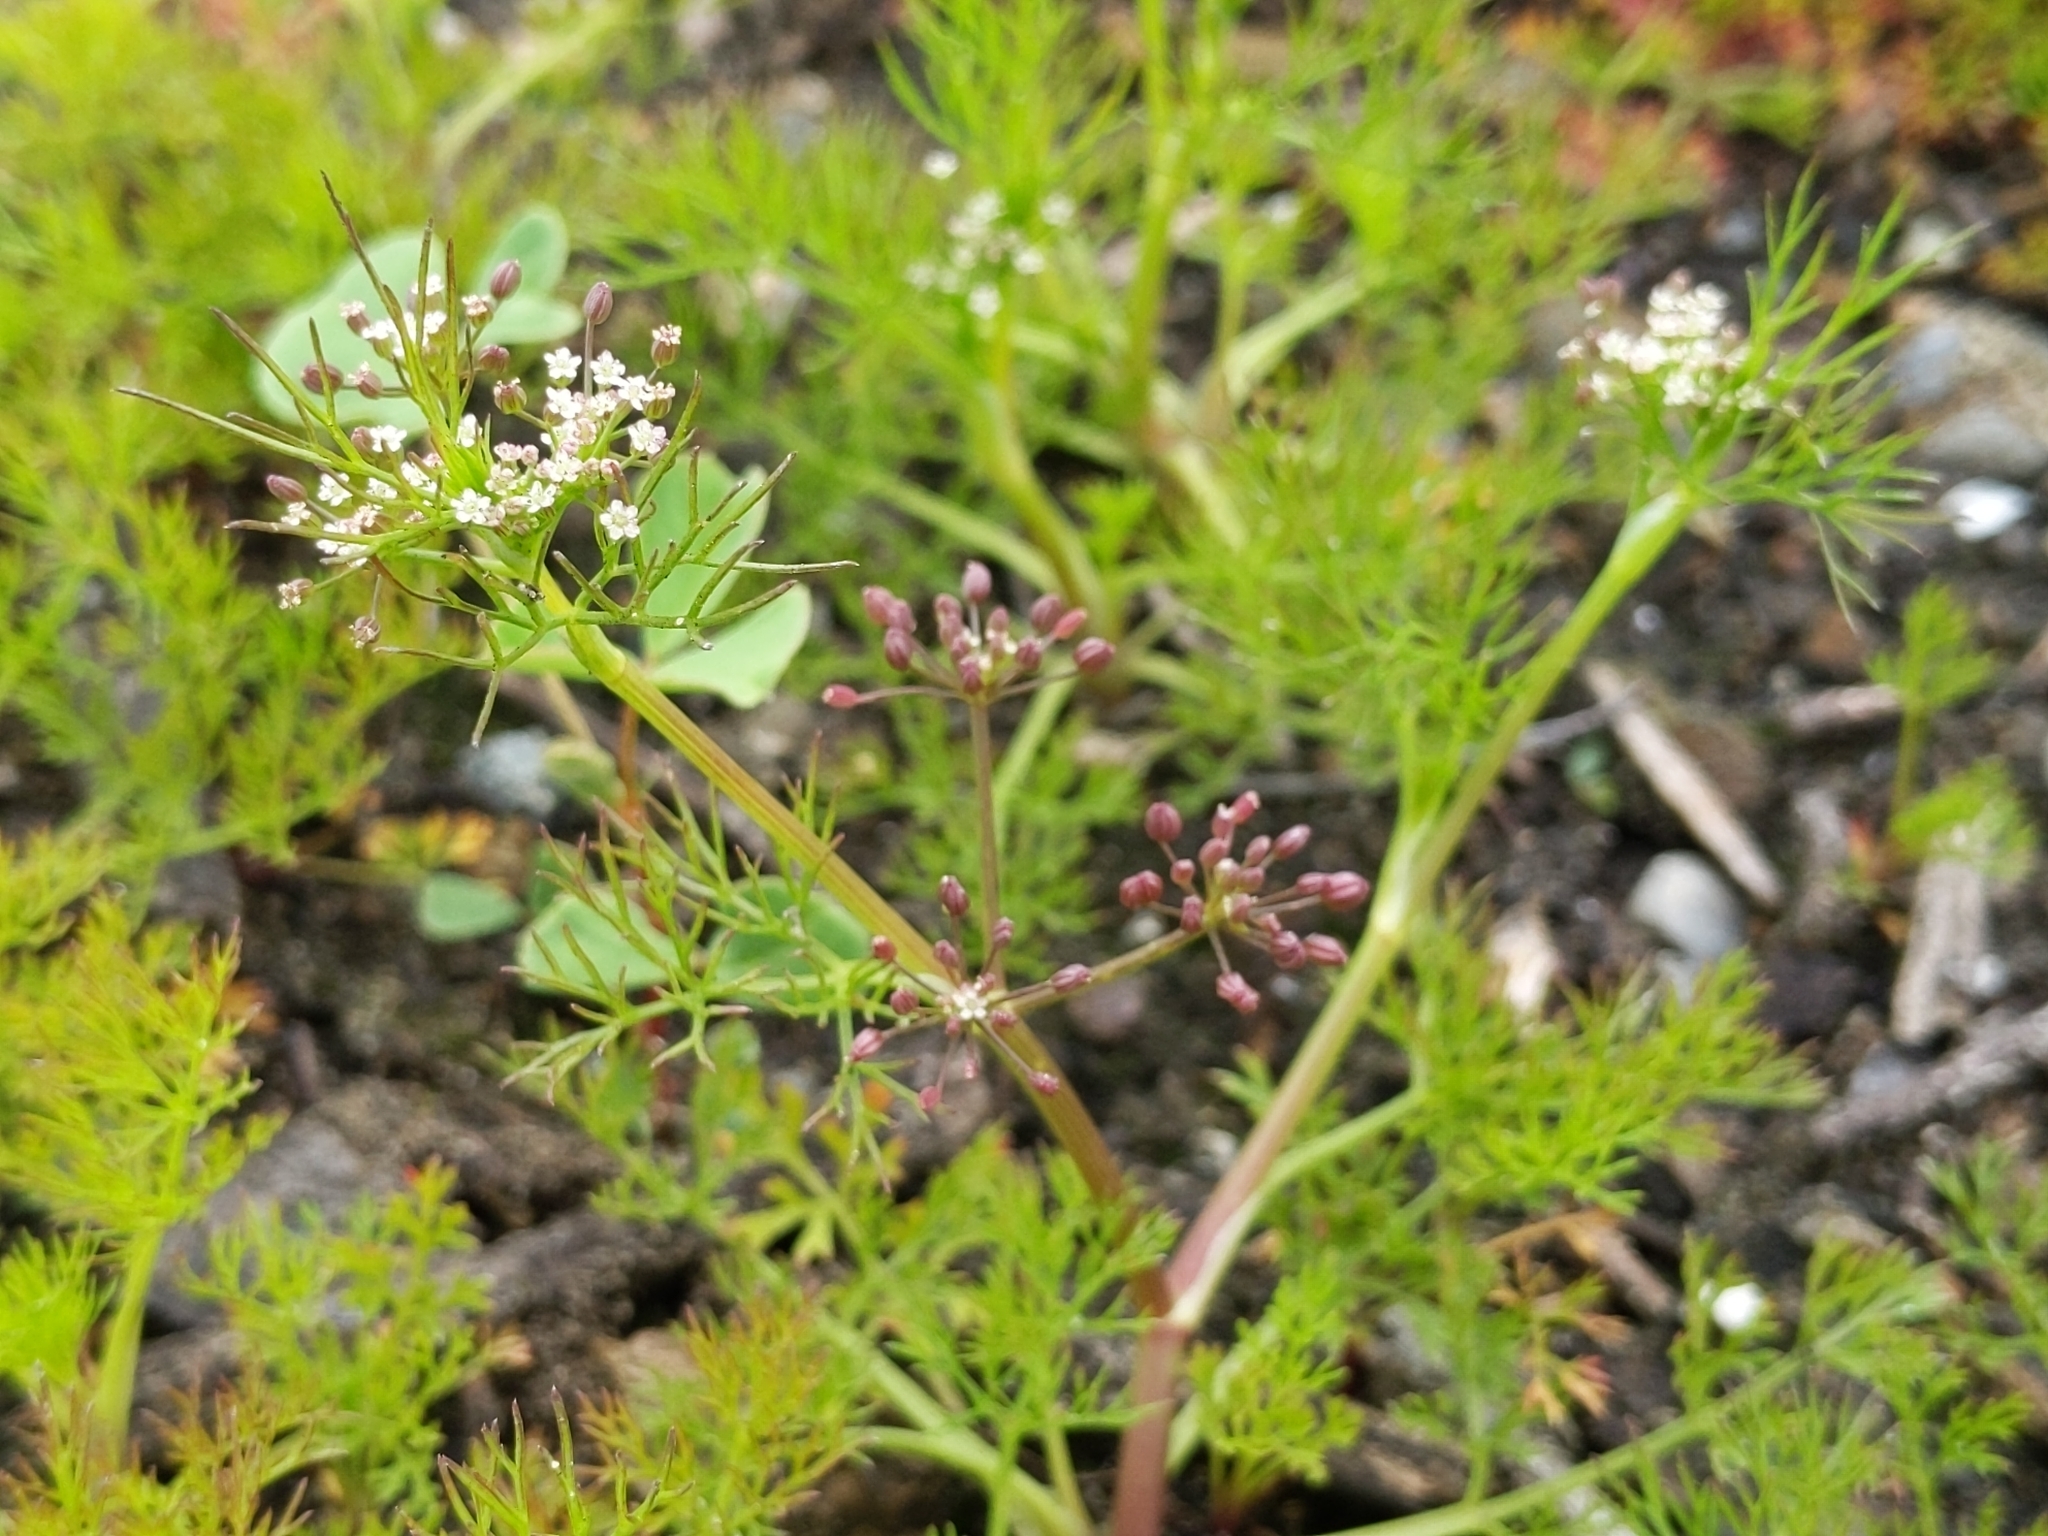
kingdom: Plantae
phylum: Tracheophyta
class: Magnoliopsida
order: Apiales
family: Apiaceae
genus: Cyclospermum
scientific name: Cyclospermum leptophyllum
